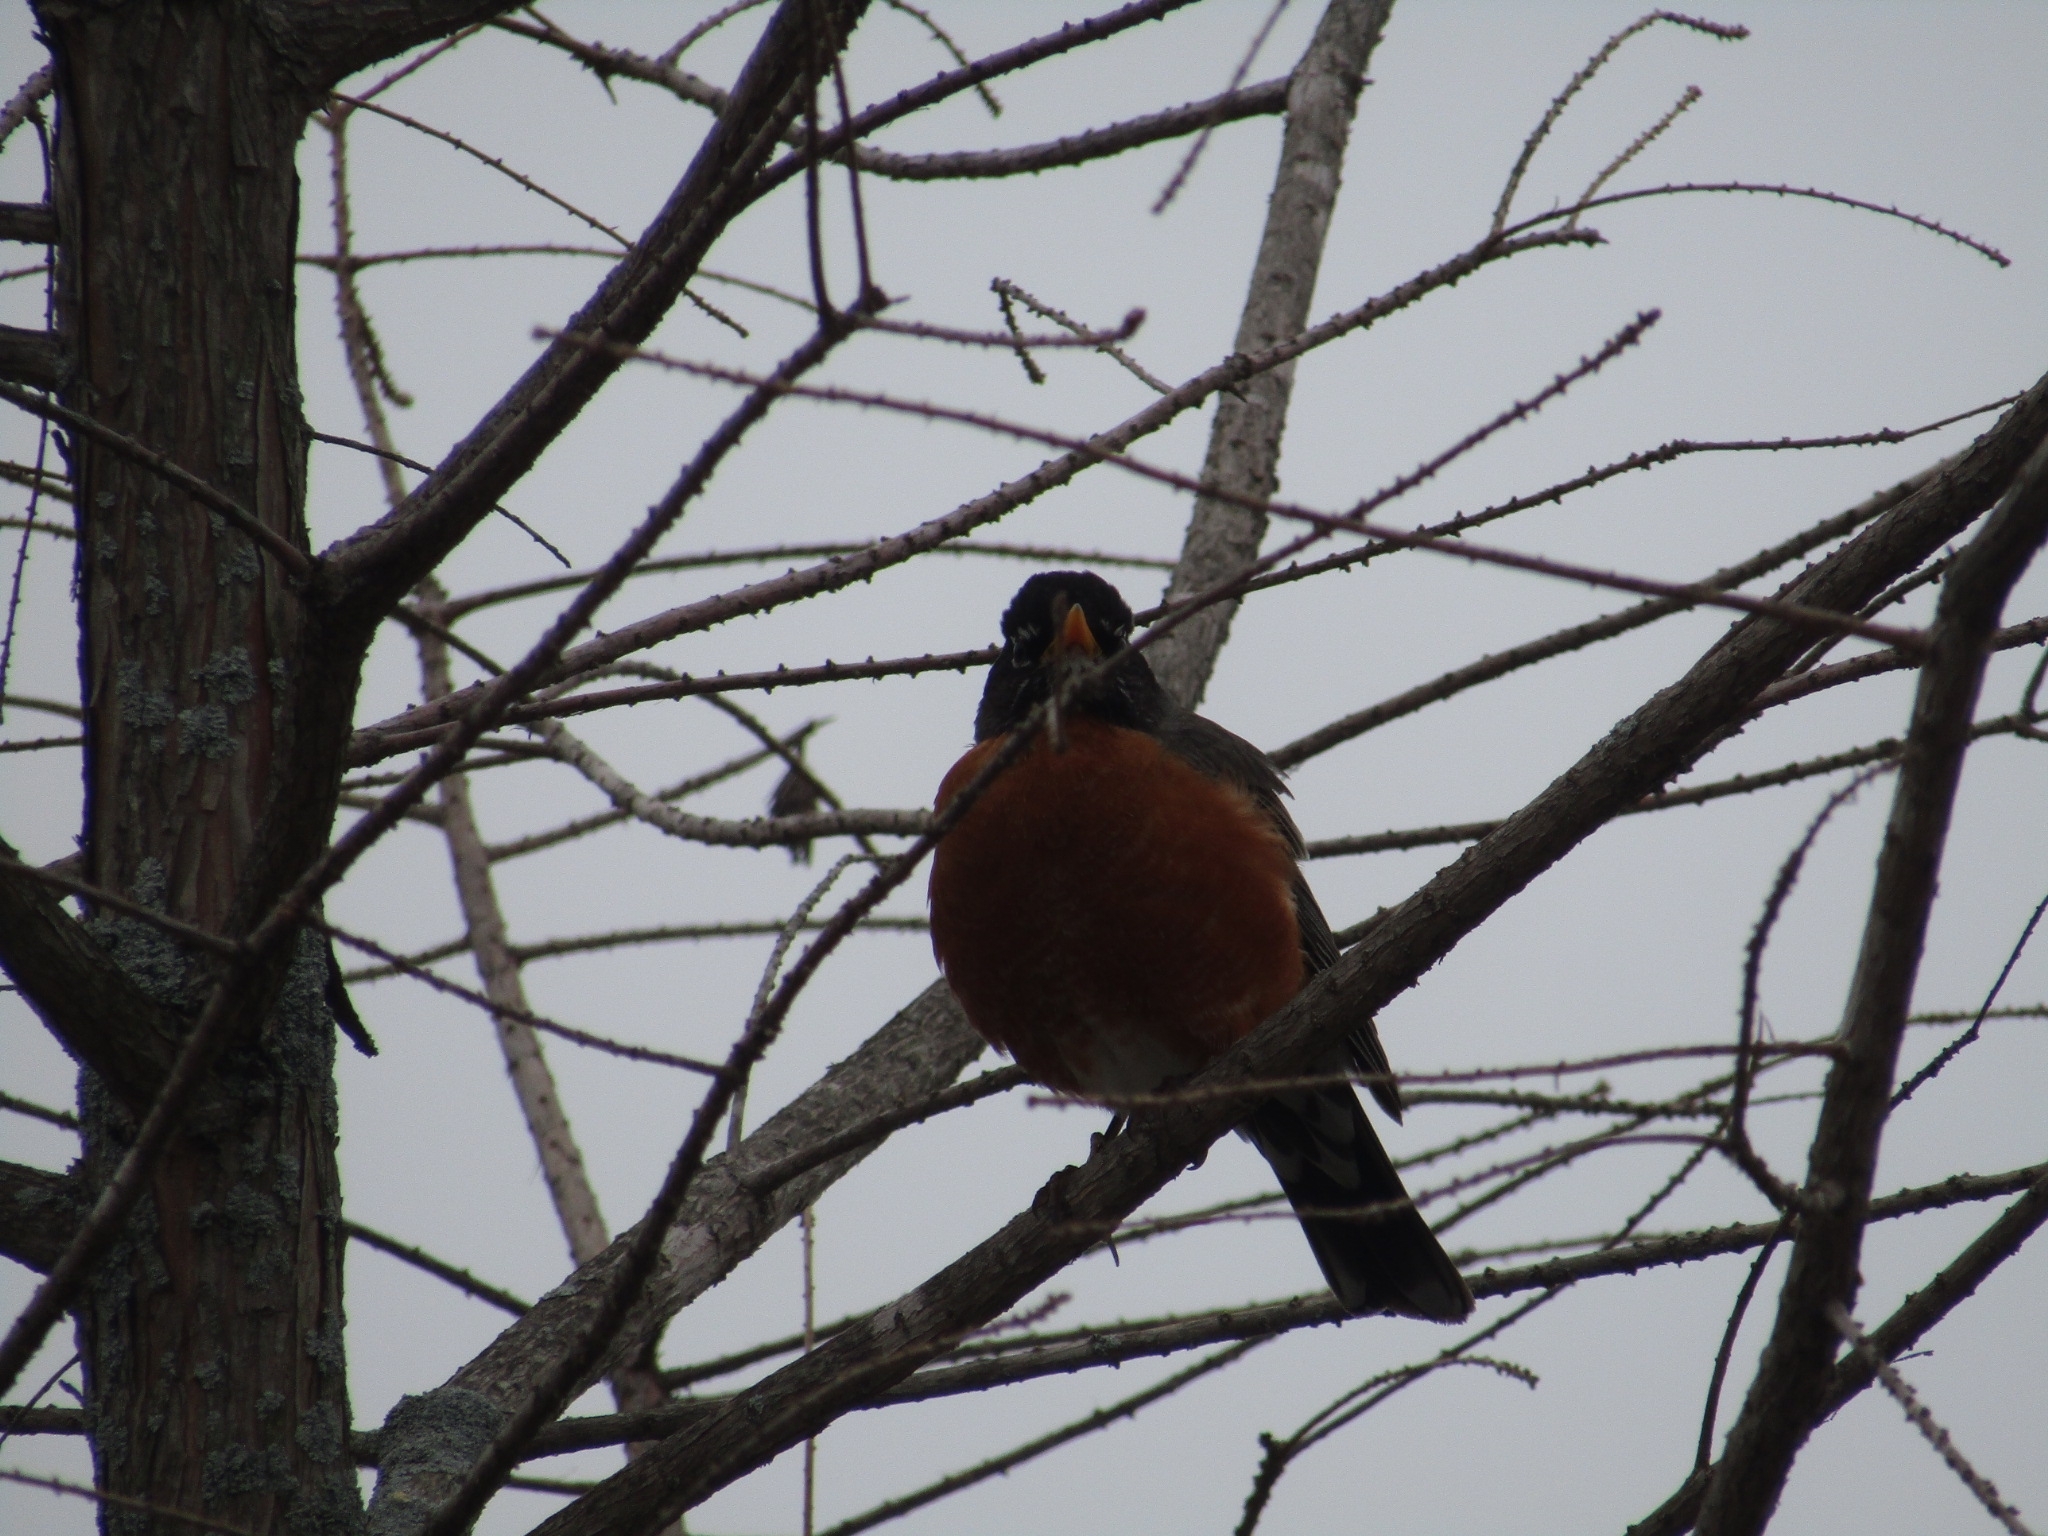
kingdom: Animalia
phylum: Chordata
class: Aves
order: Passeriformes
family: Turdidae
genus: Turdus
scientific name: Turdus migratorius
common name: American robin
